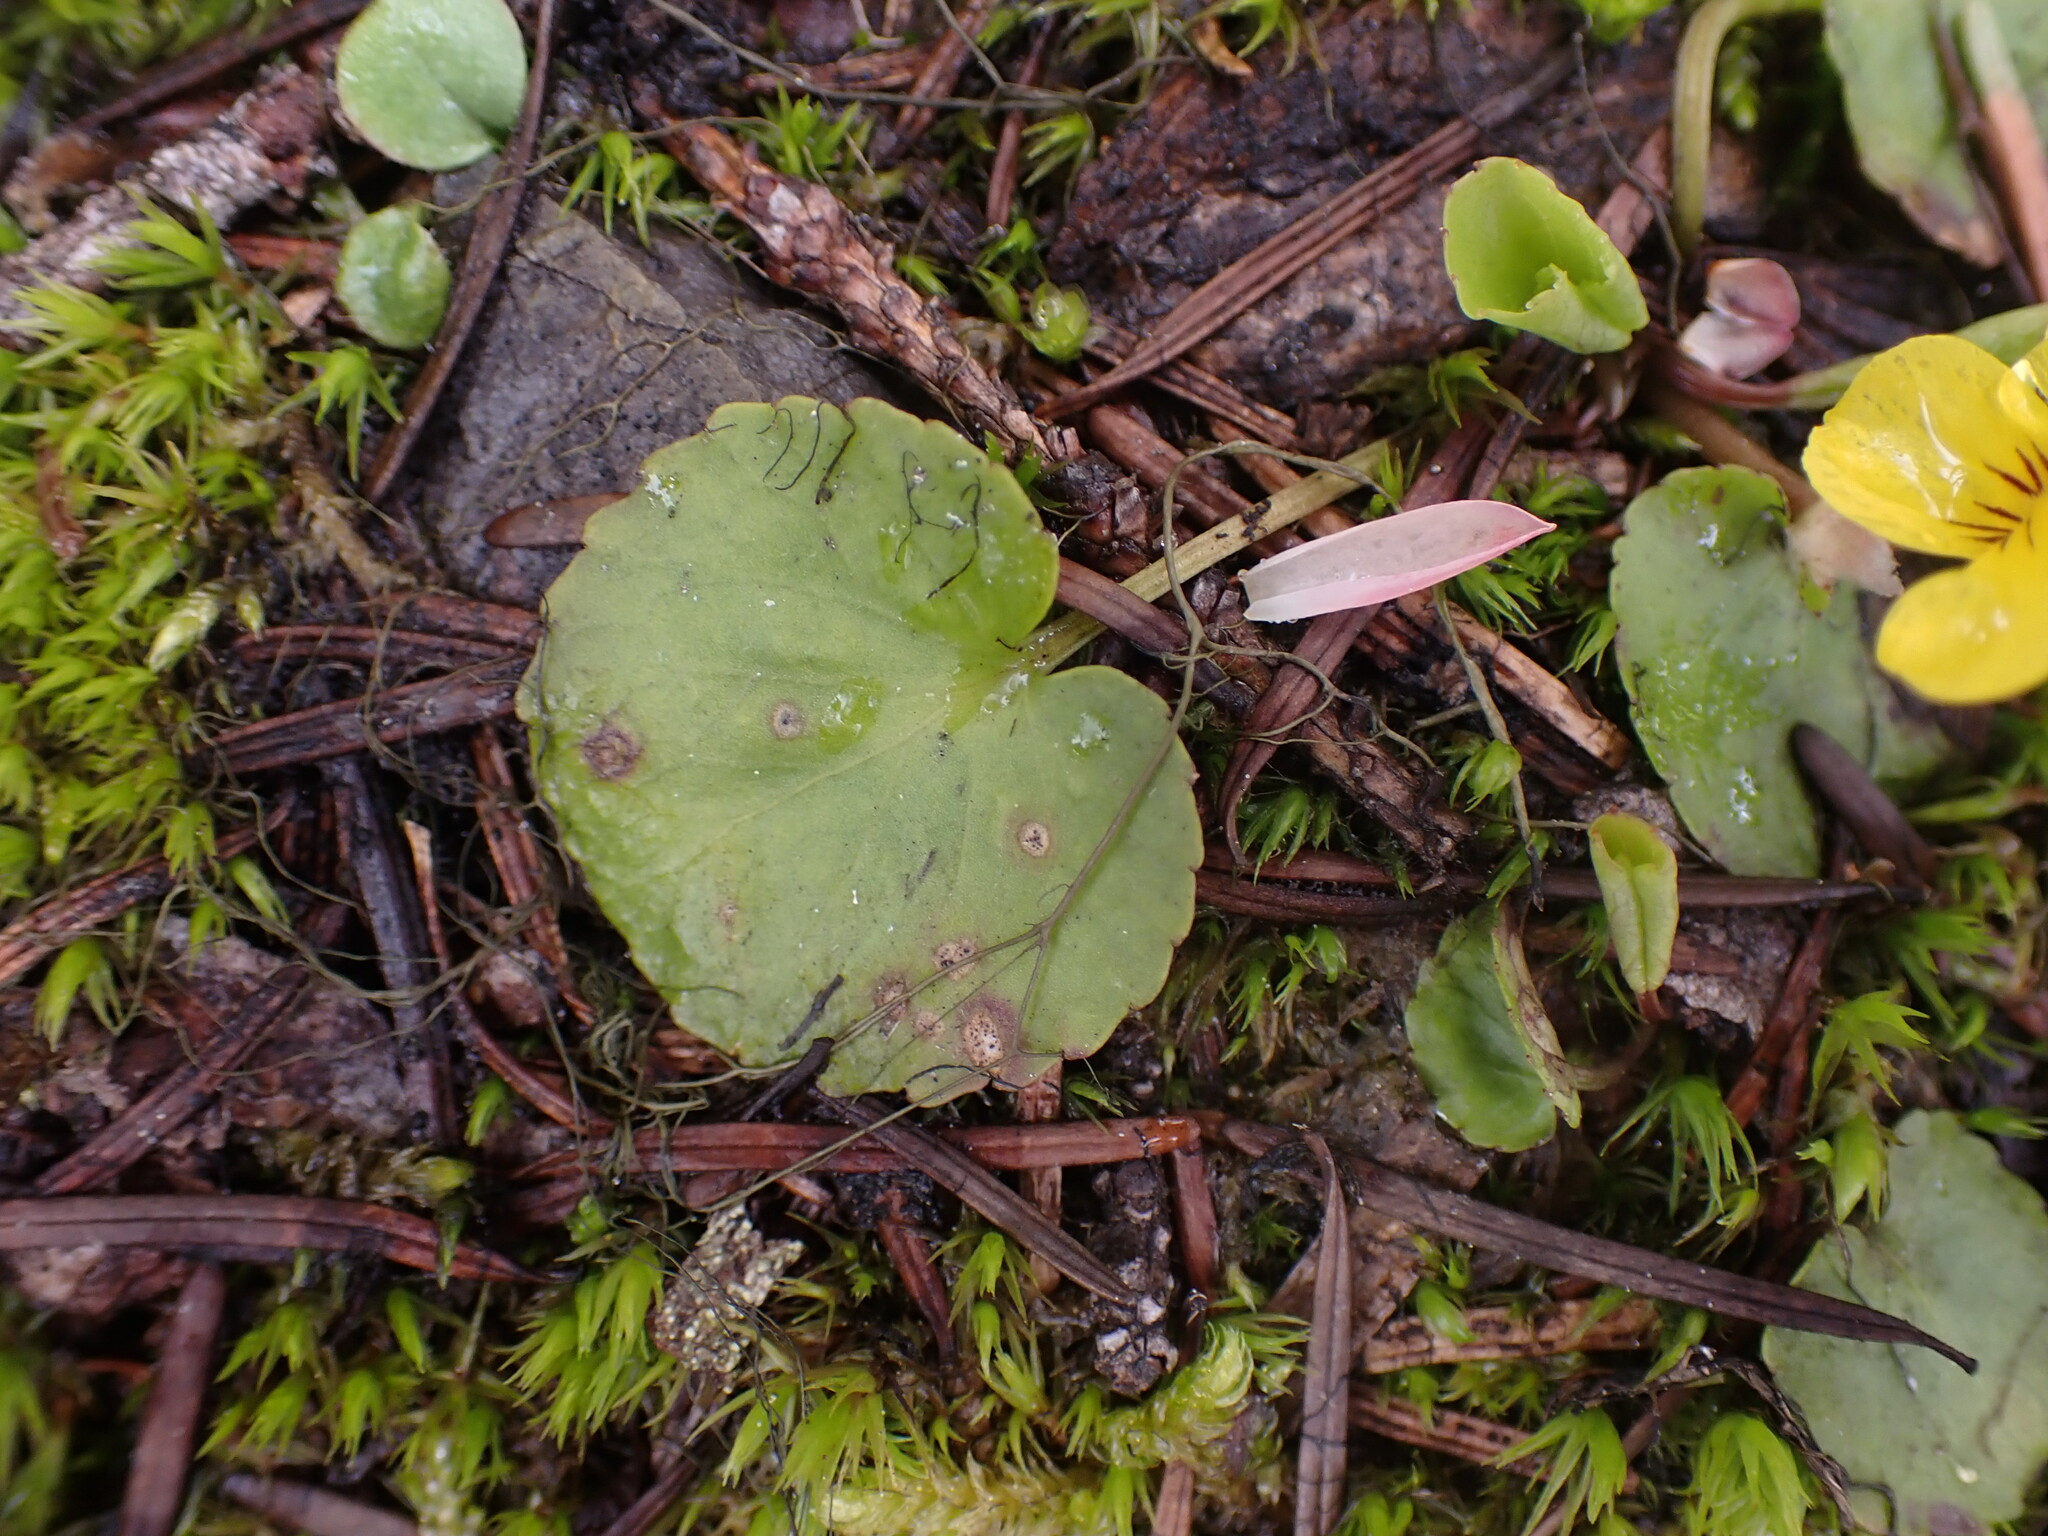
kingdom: Plantae
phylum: Tracheophyta
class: Magnoliopsida
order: Malpighiales
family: Violaceae
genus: Viola
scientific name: Viola orbiculata
